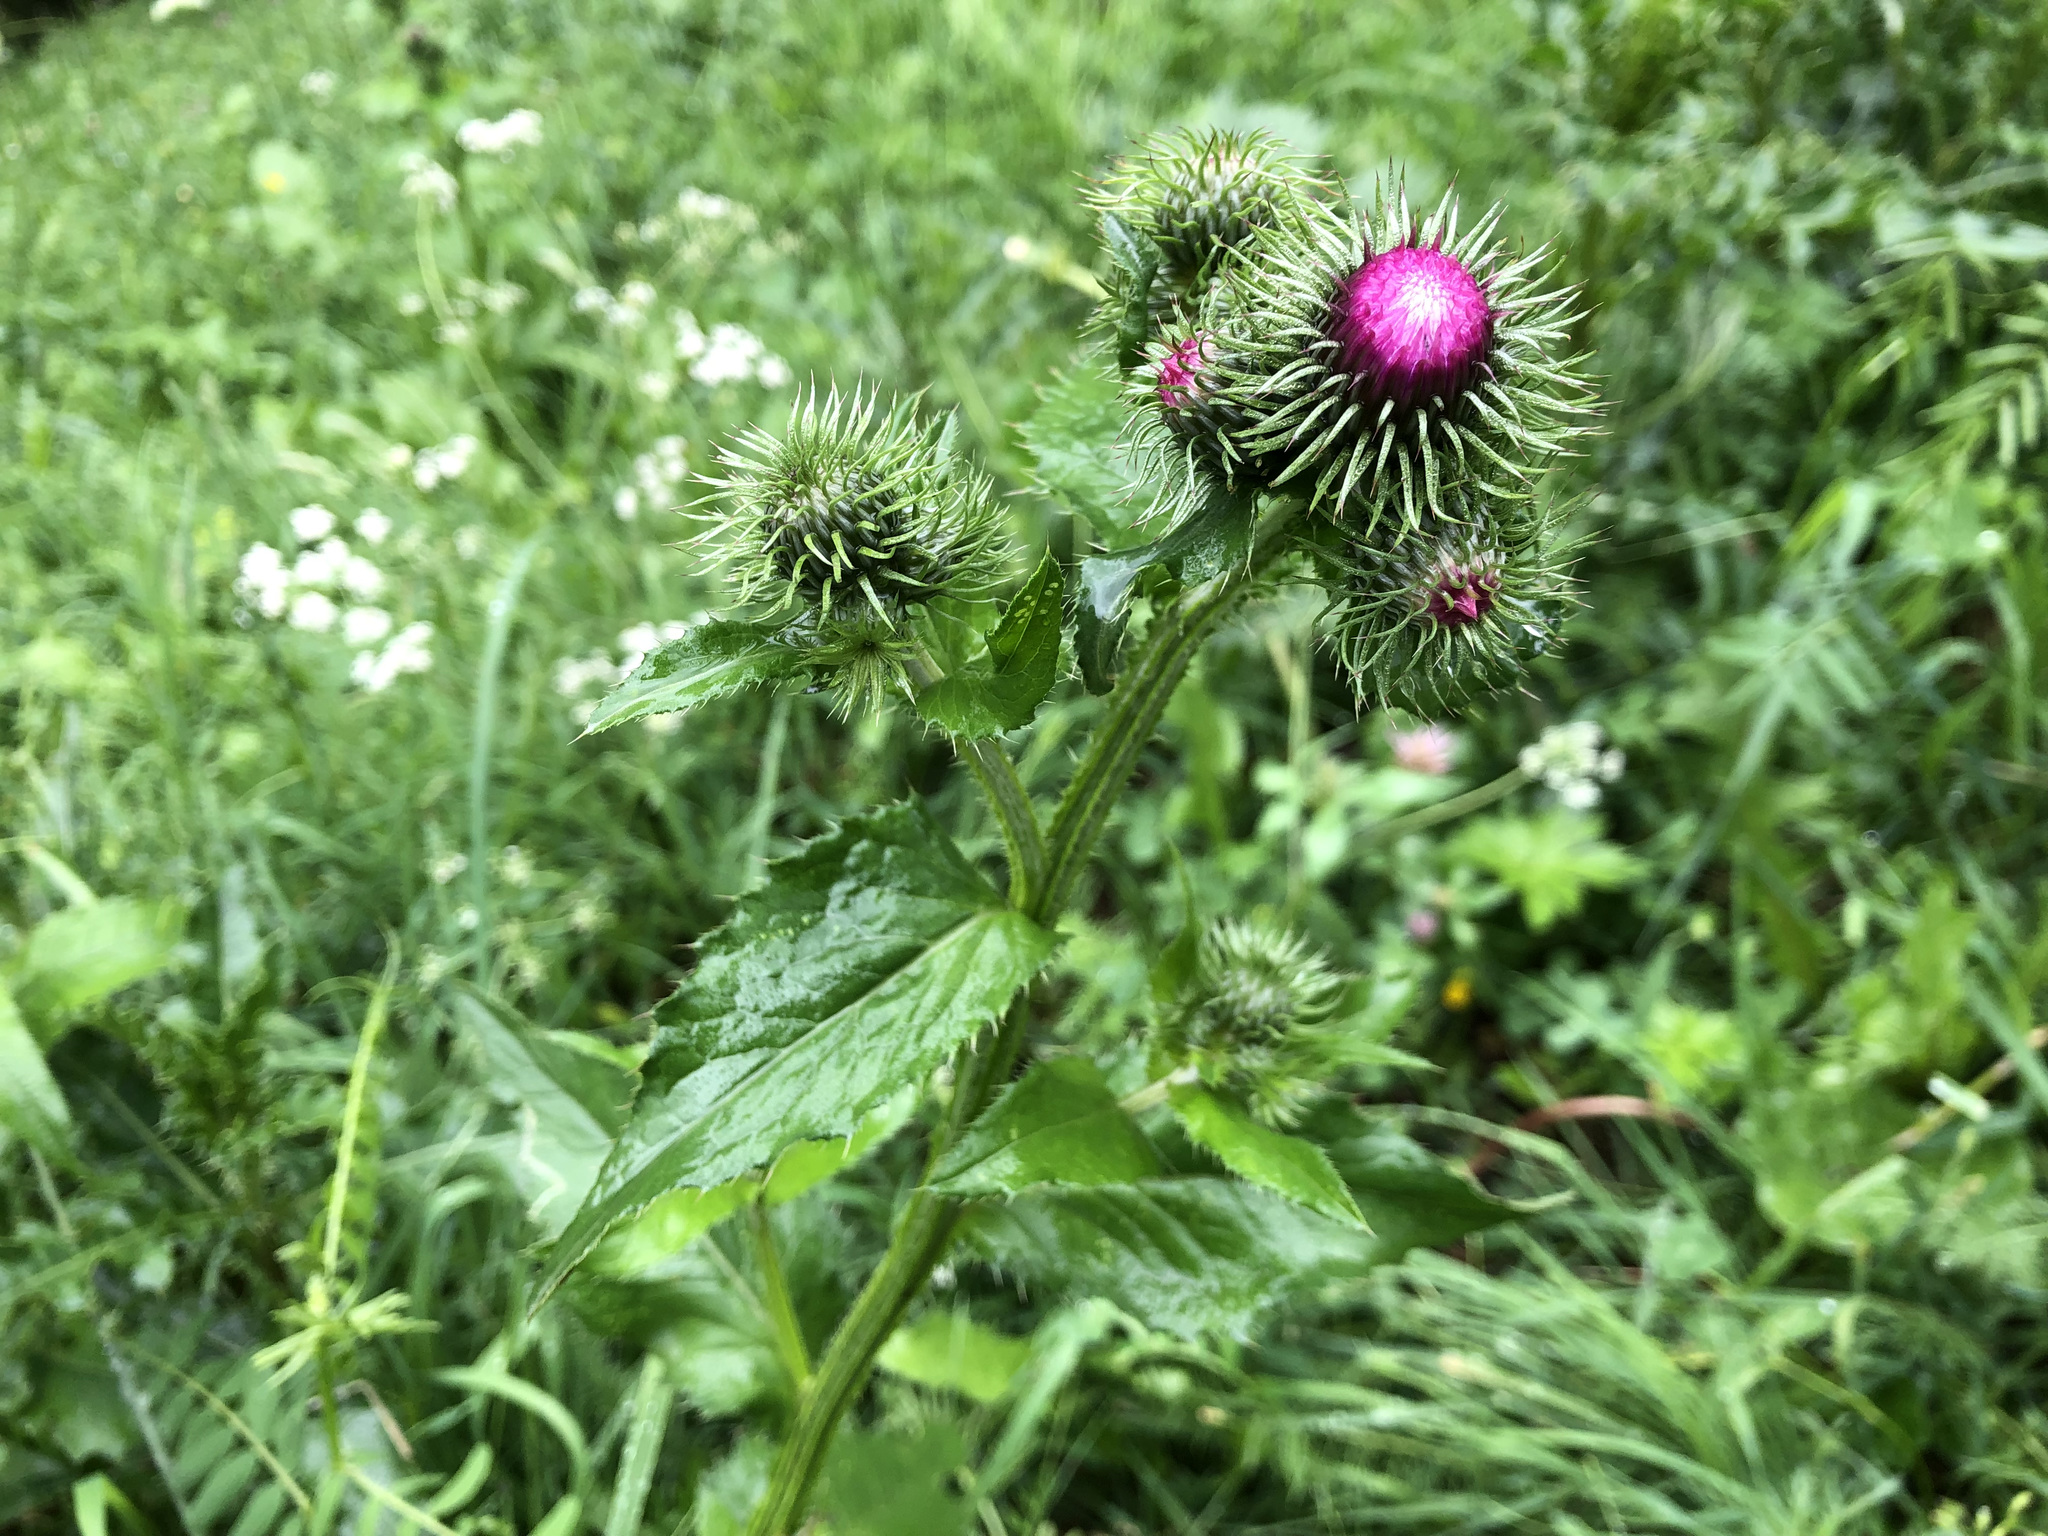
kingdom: Plantae
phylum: Tracheophyta
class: Magnoliopsida
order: Asterales
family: Asteraceae
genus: Carduus
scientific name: Carduus personata
